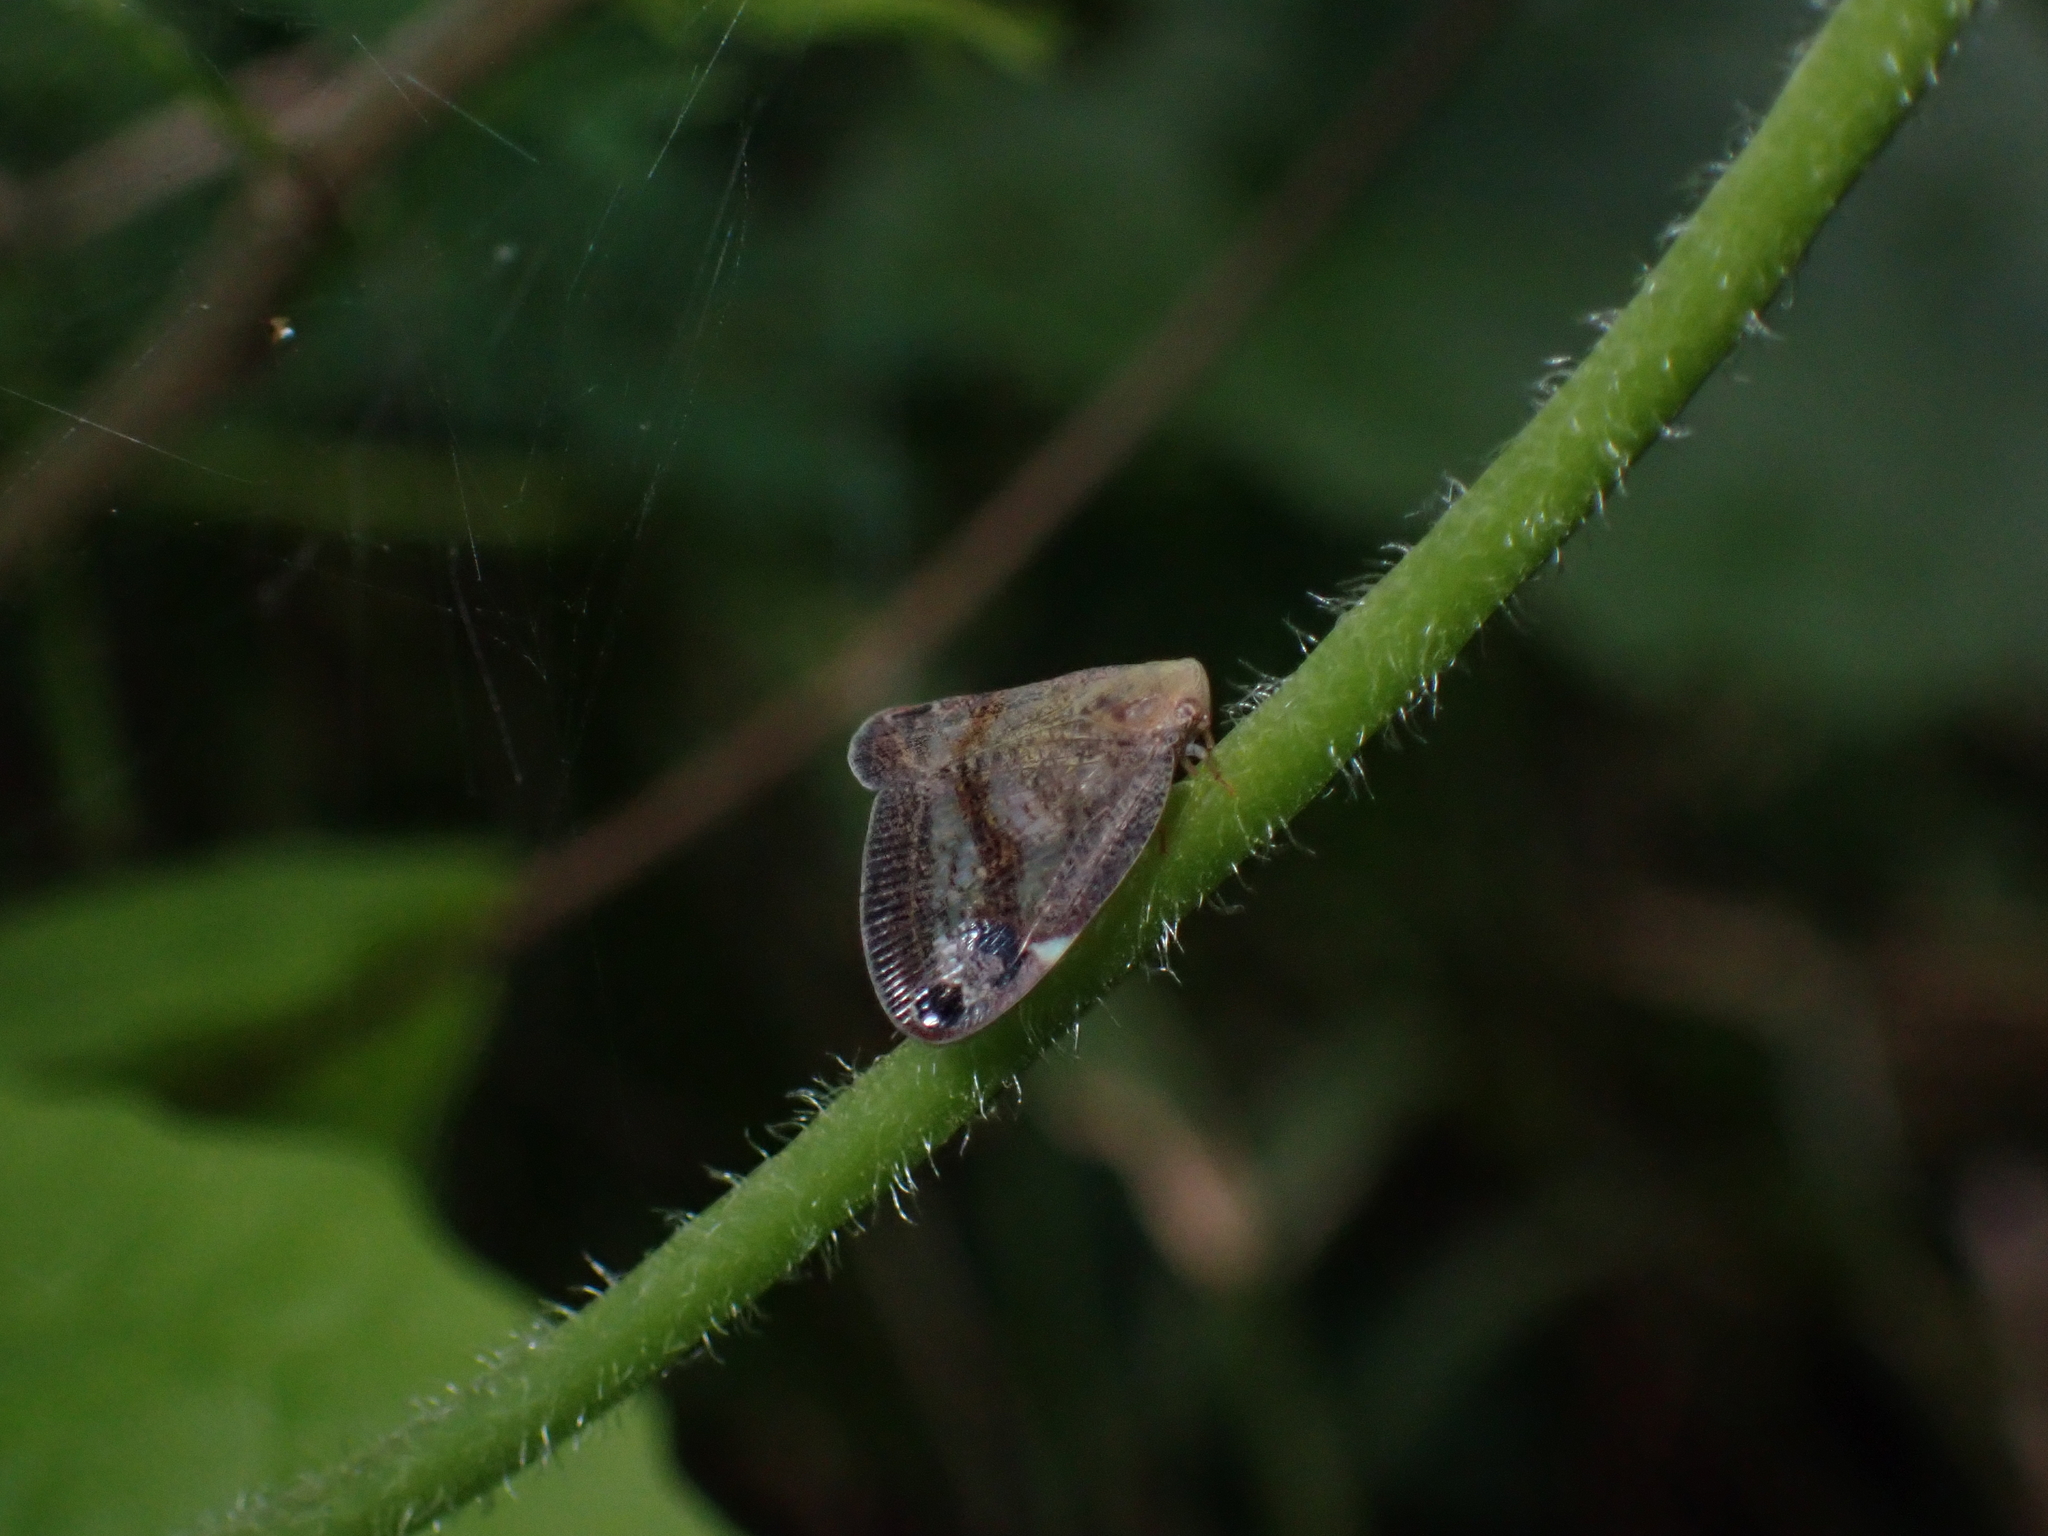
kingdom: Animalia
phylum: Arthropoda
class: Insecta
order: Hemiptera
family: Ricaniidae
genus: Parapiromis
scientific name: Parapiromis translucida
